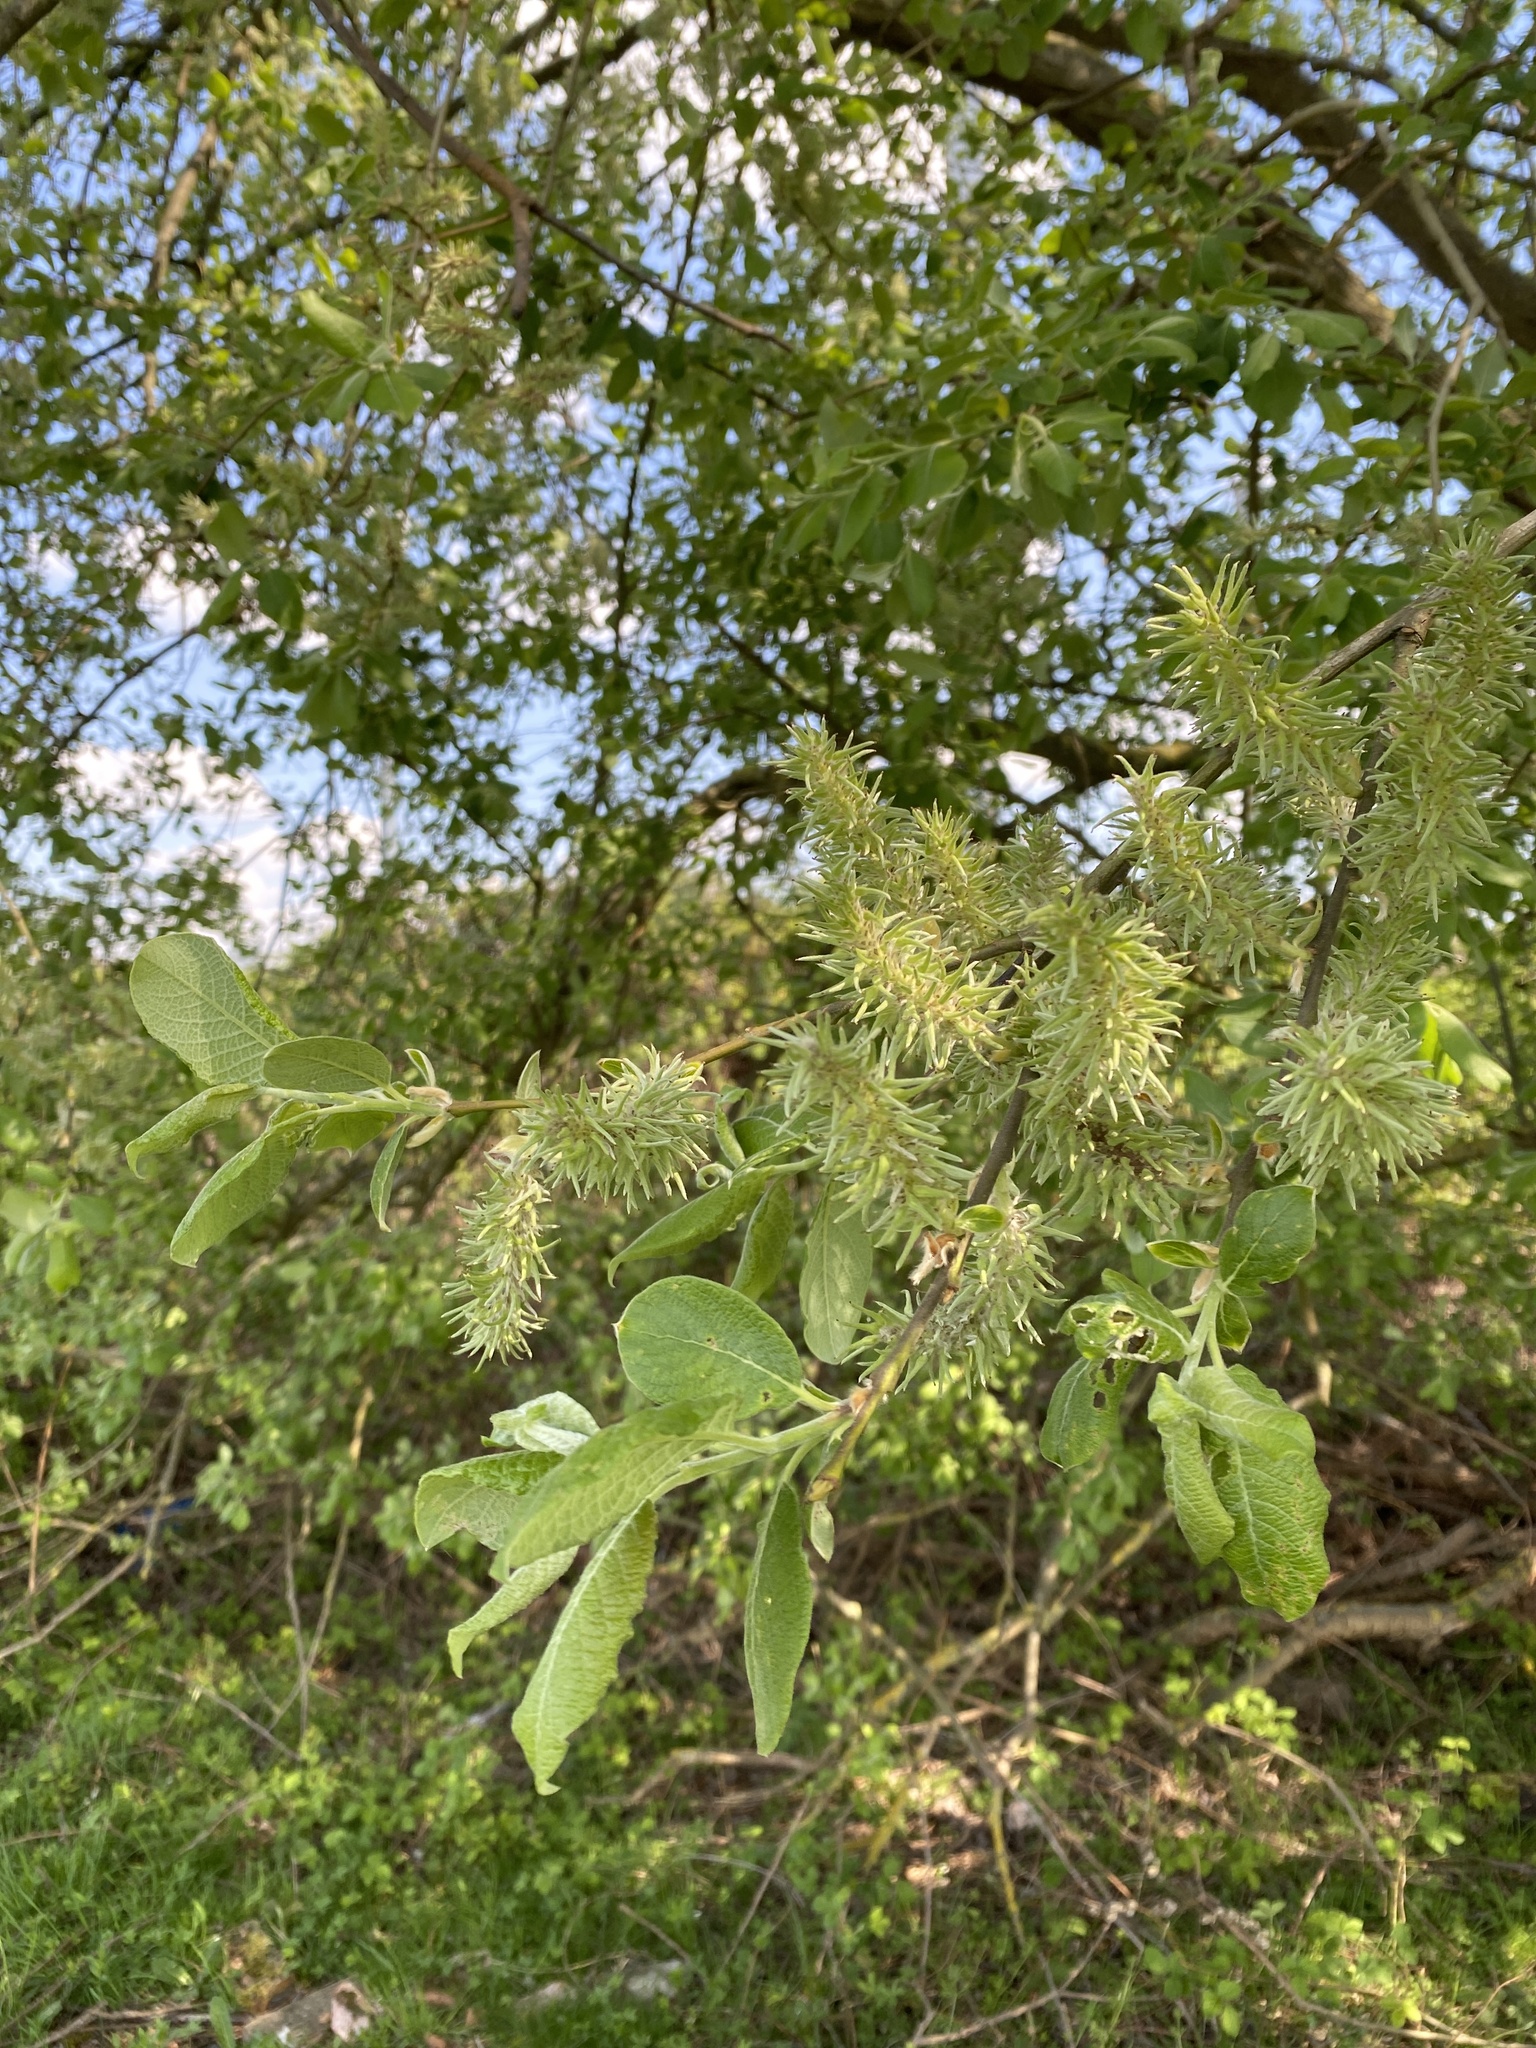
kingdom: Plantae
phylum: Tracheophyta
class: Magnoliopsida
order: Malpighiales
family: Salicaceae
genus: Salix
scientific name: Salix cinerea
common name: Common sallow
